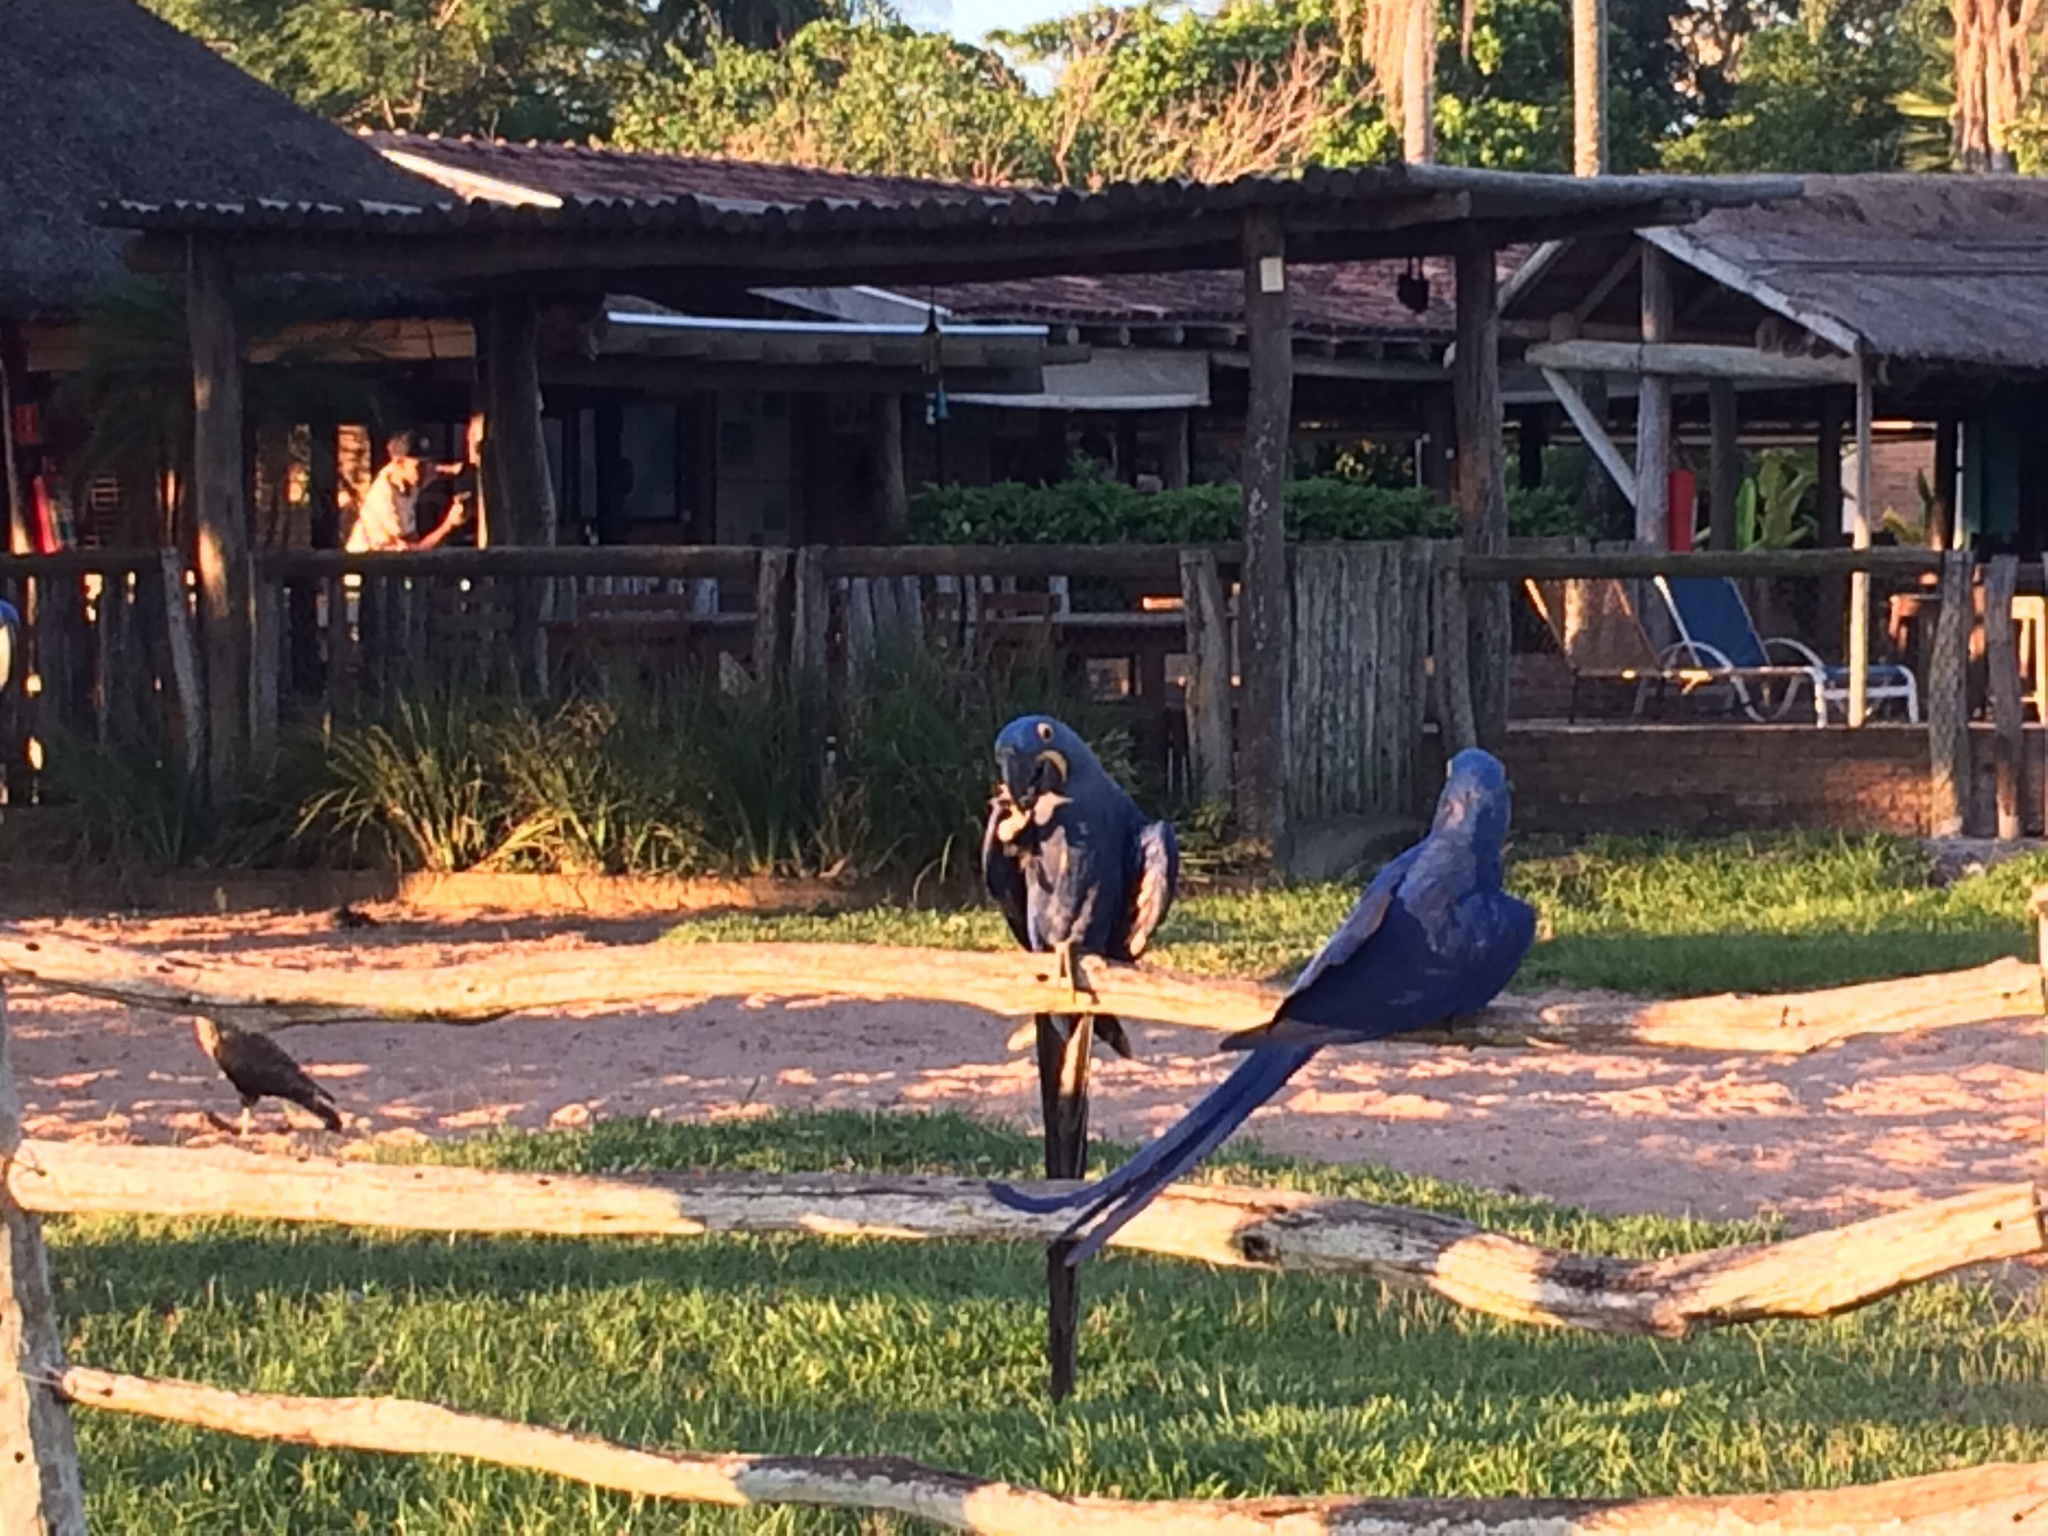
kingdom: Animalia
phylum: Chordata
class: Aves
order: Psittaciformes
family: Psittacidae
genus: Anodorhynchus
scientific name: Anodorhynchus hyacinthinus
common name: Hyacinth macaw
